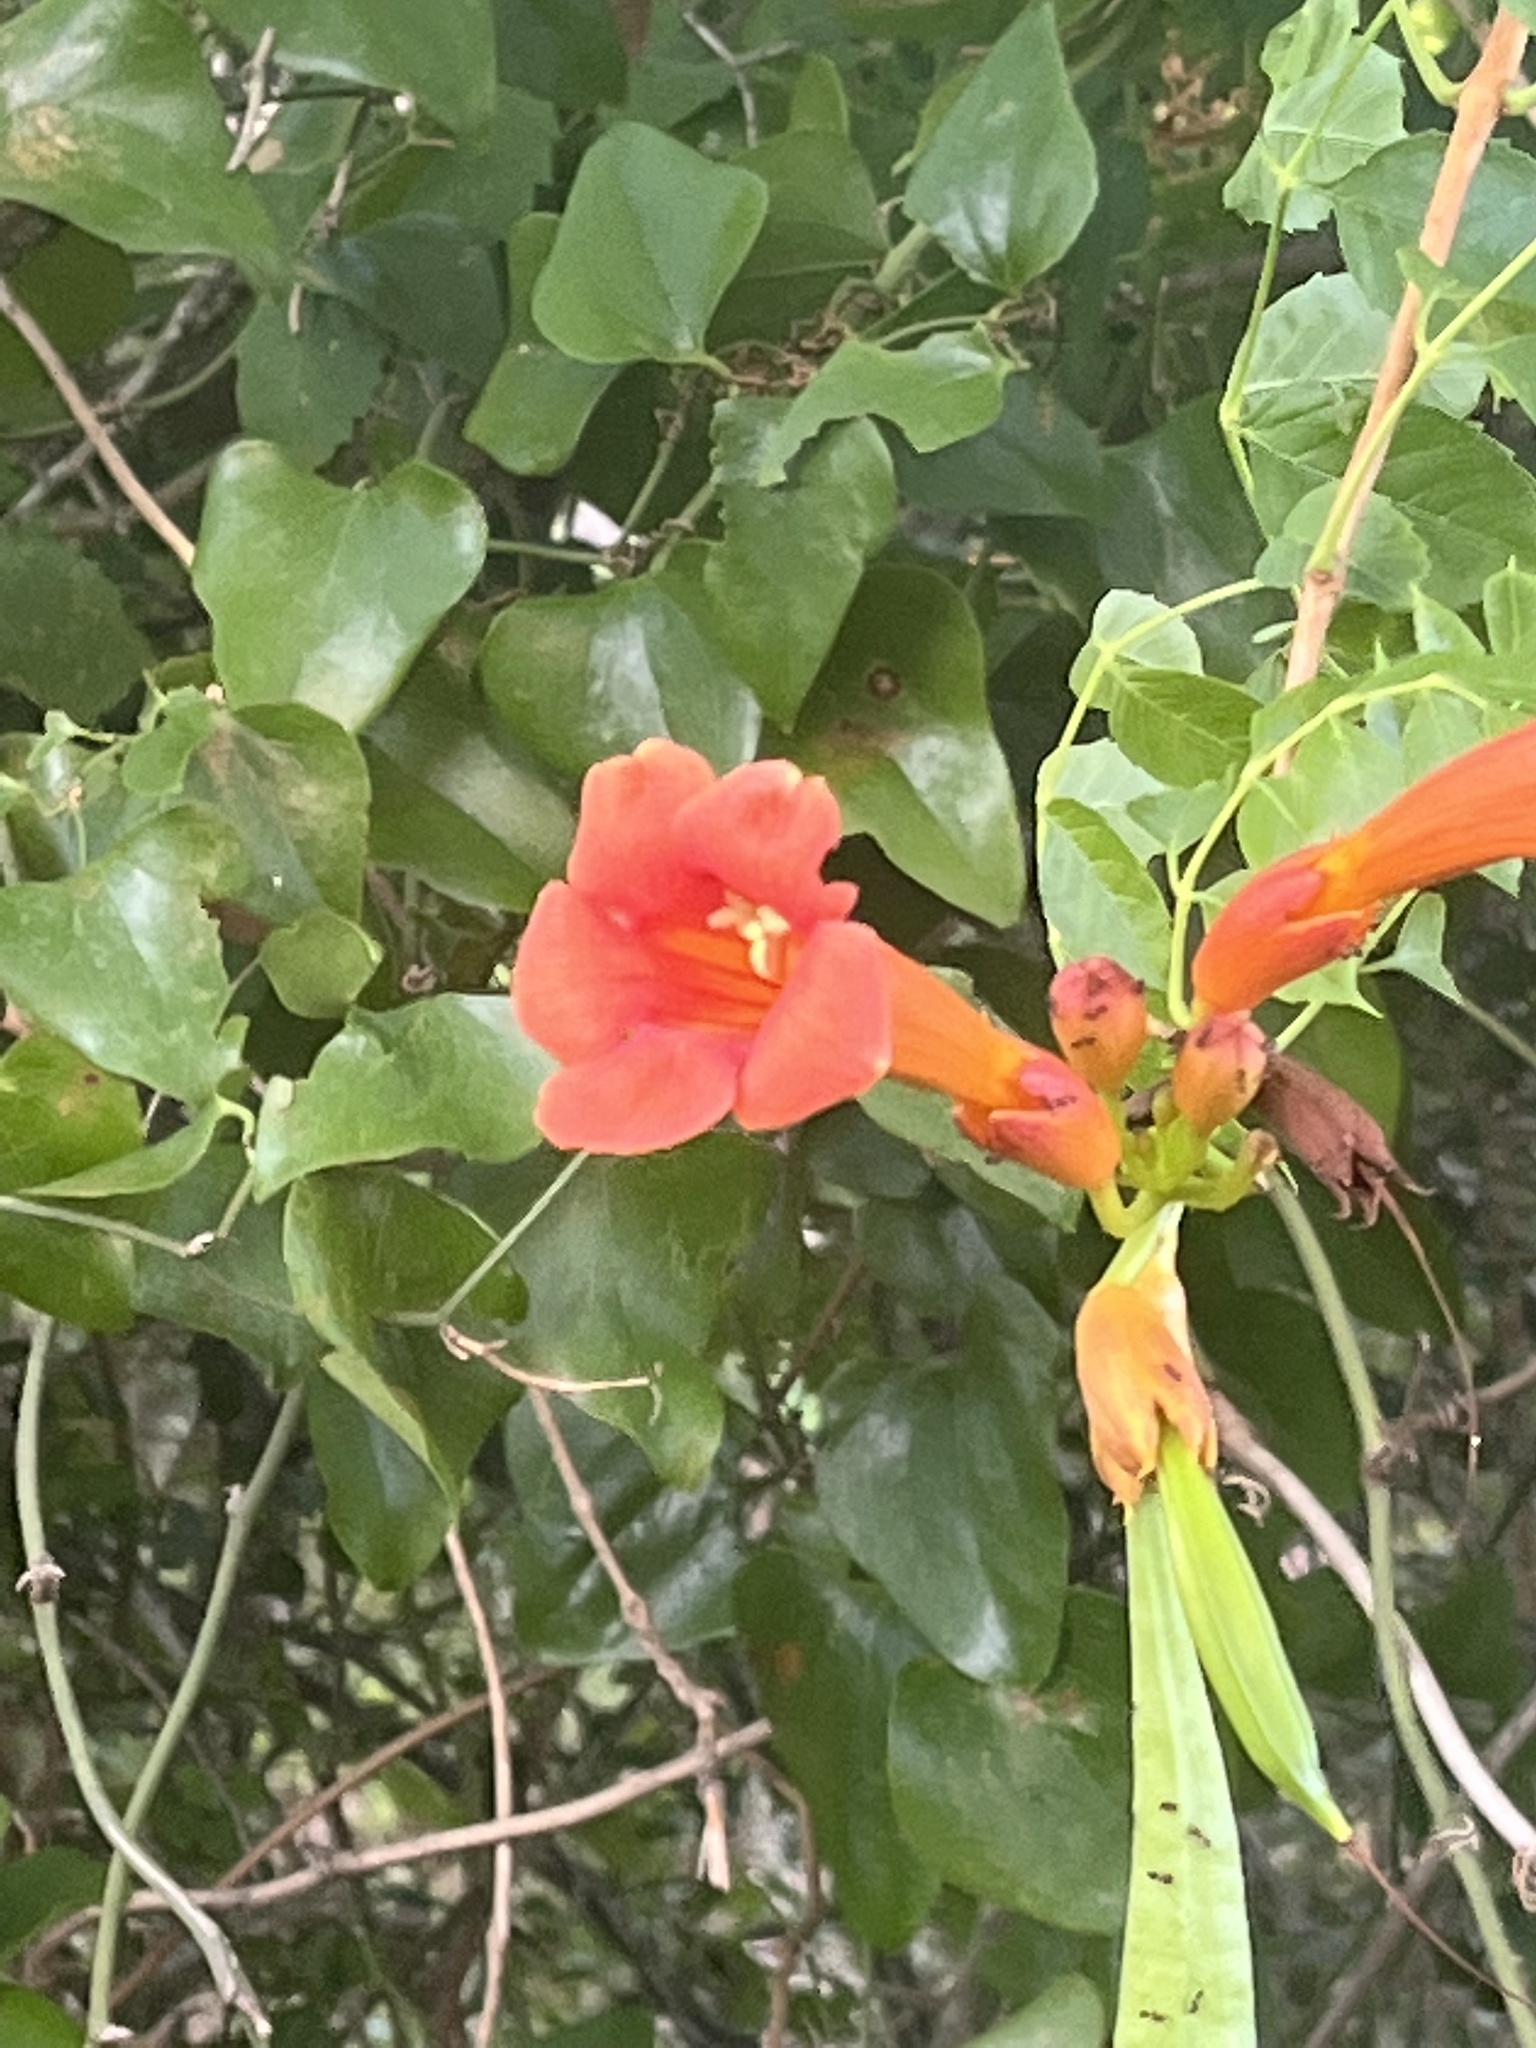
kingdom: Plantae
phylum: Tracheophyta
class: Magnoliopsida
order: Lamiales
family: Bignoniaceae
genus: Campsis
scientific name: Campsis radicans
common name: Trumpet-creeper
